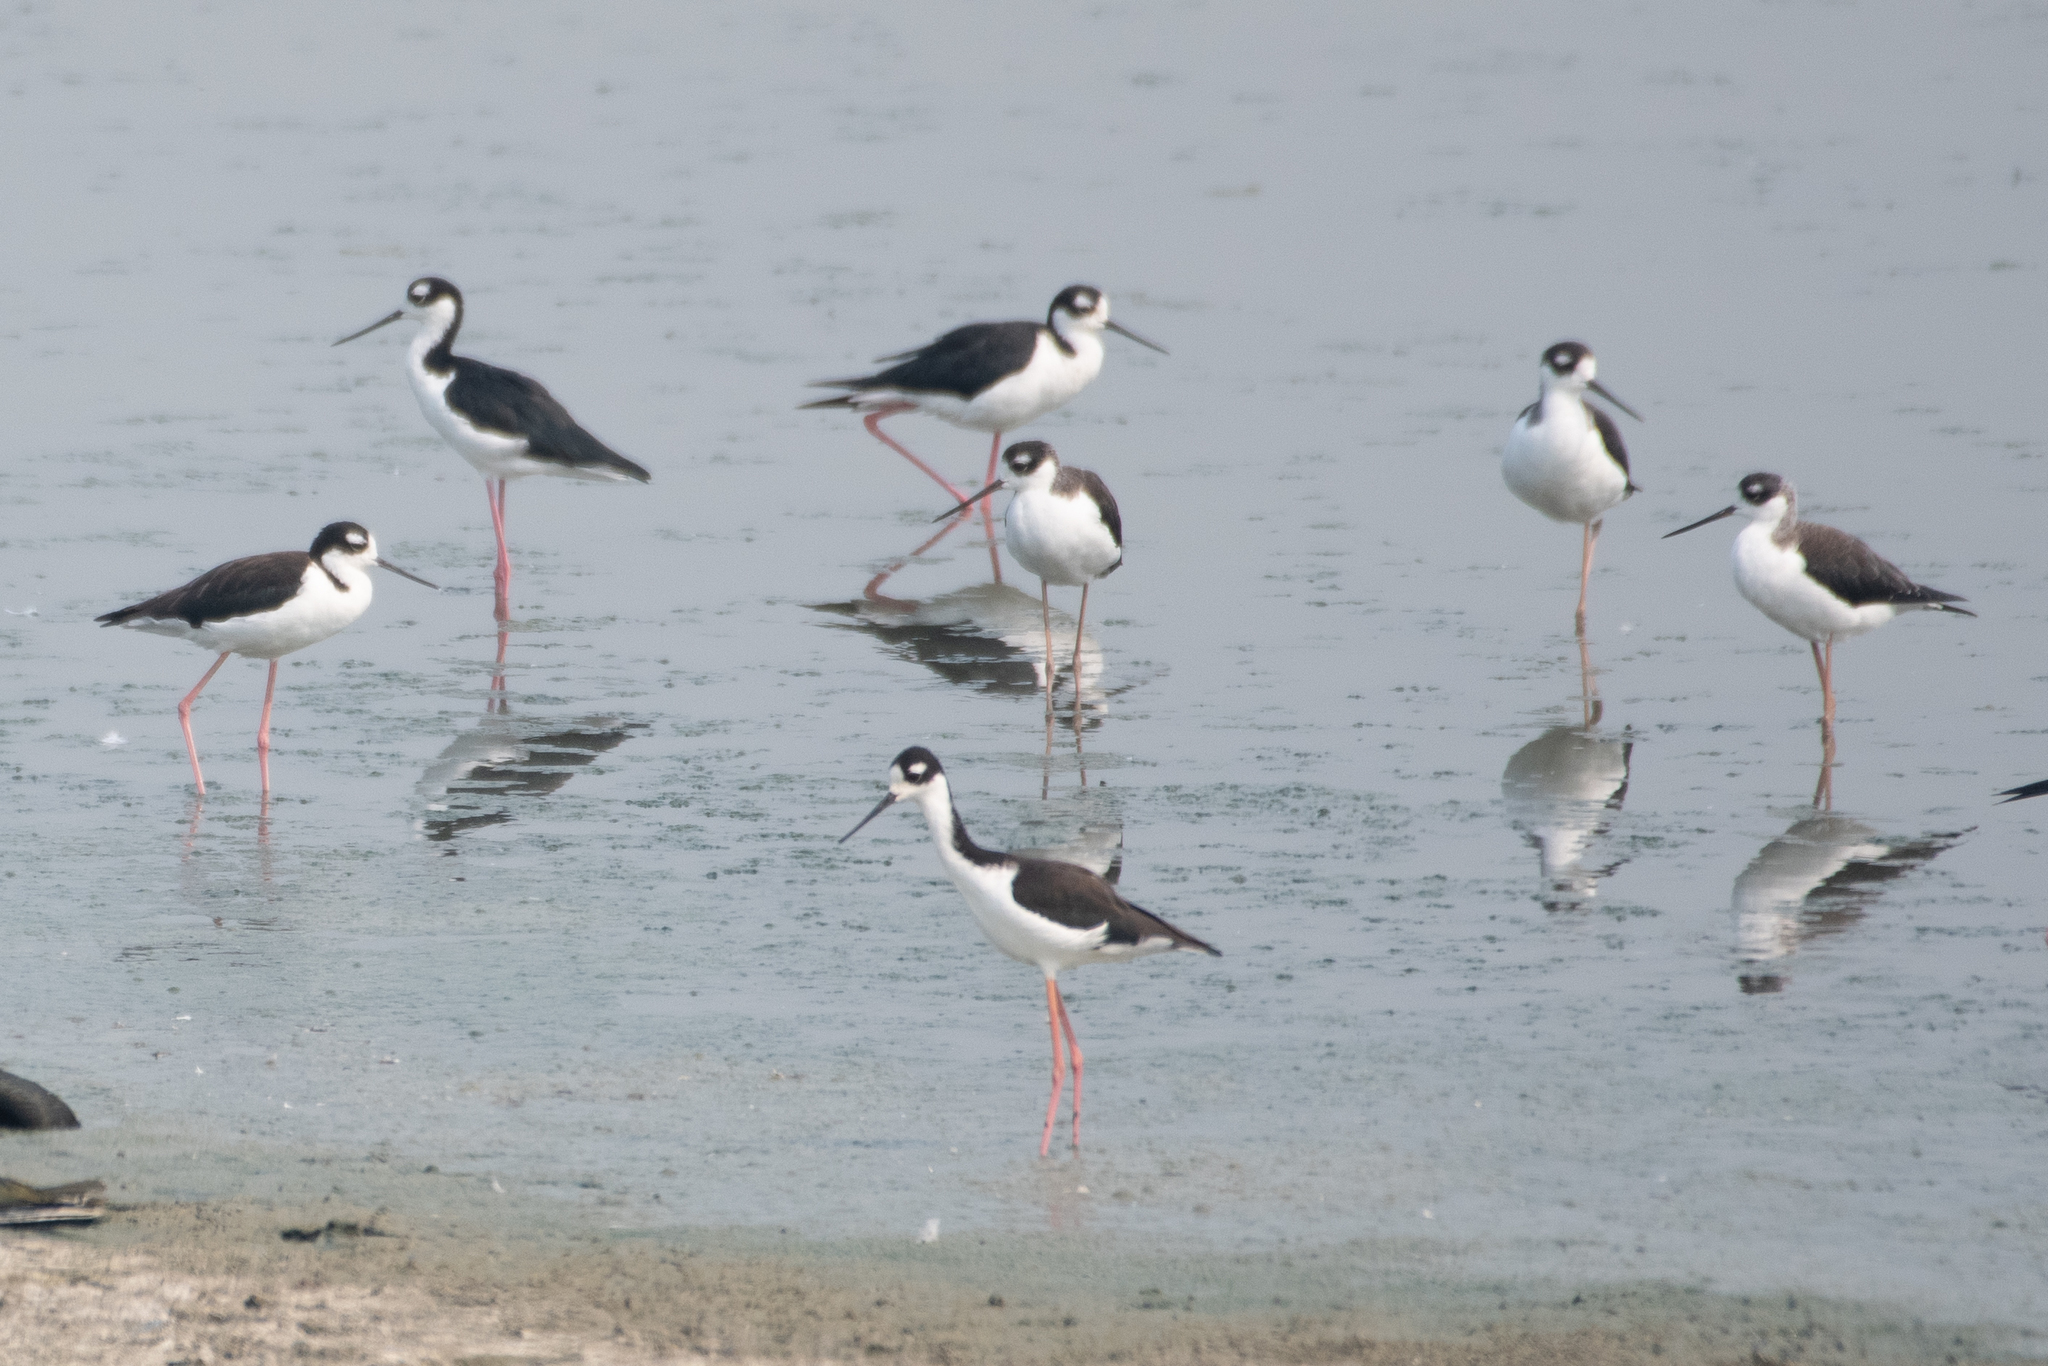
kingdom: Animalia
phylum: Chordata
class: Aves
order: Charadriiformes
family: Recurvirostridae
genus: Himantopus
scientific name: Himantopus mexicanus
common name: Black-necked stilt
